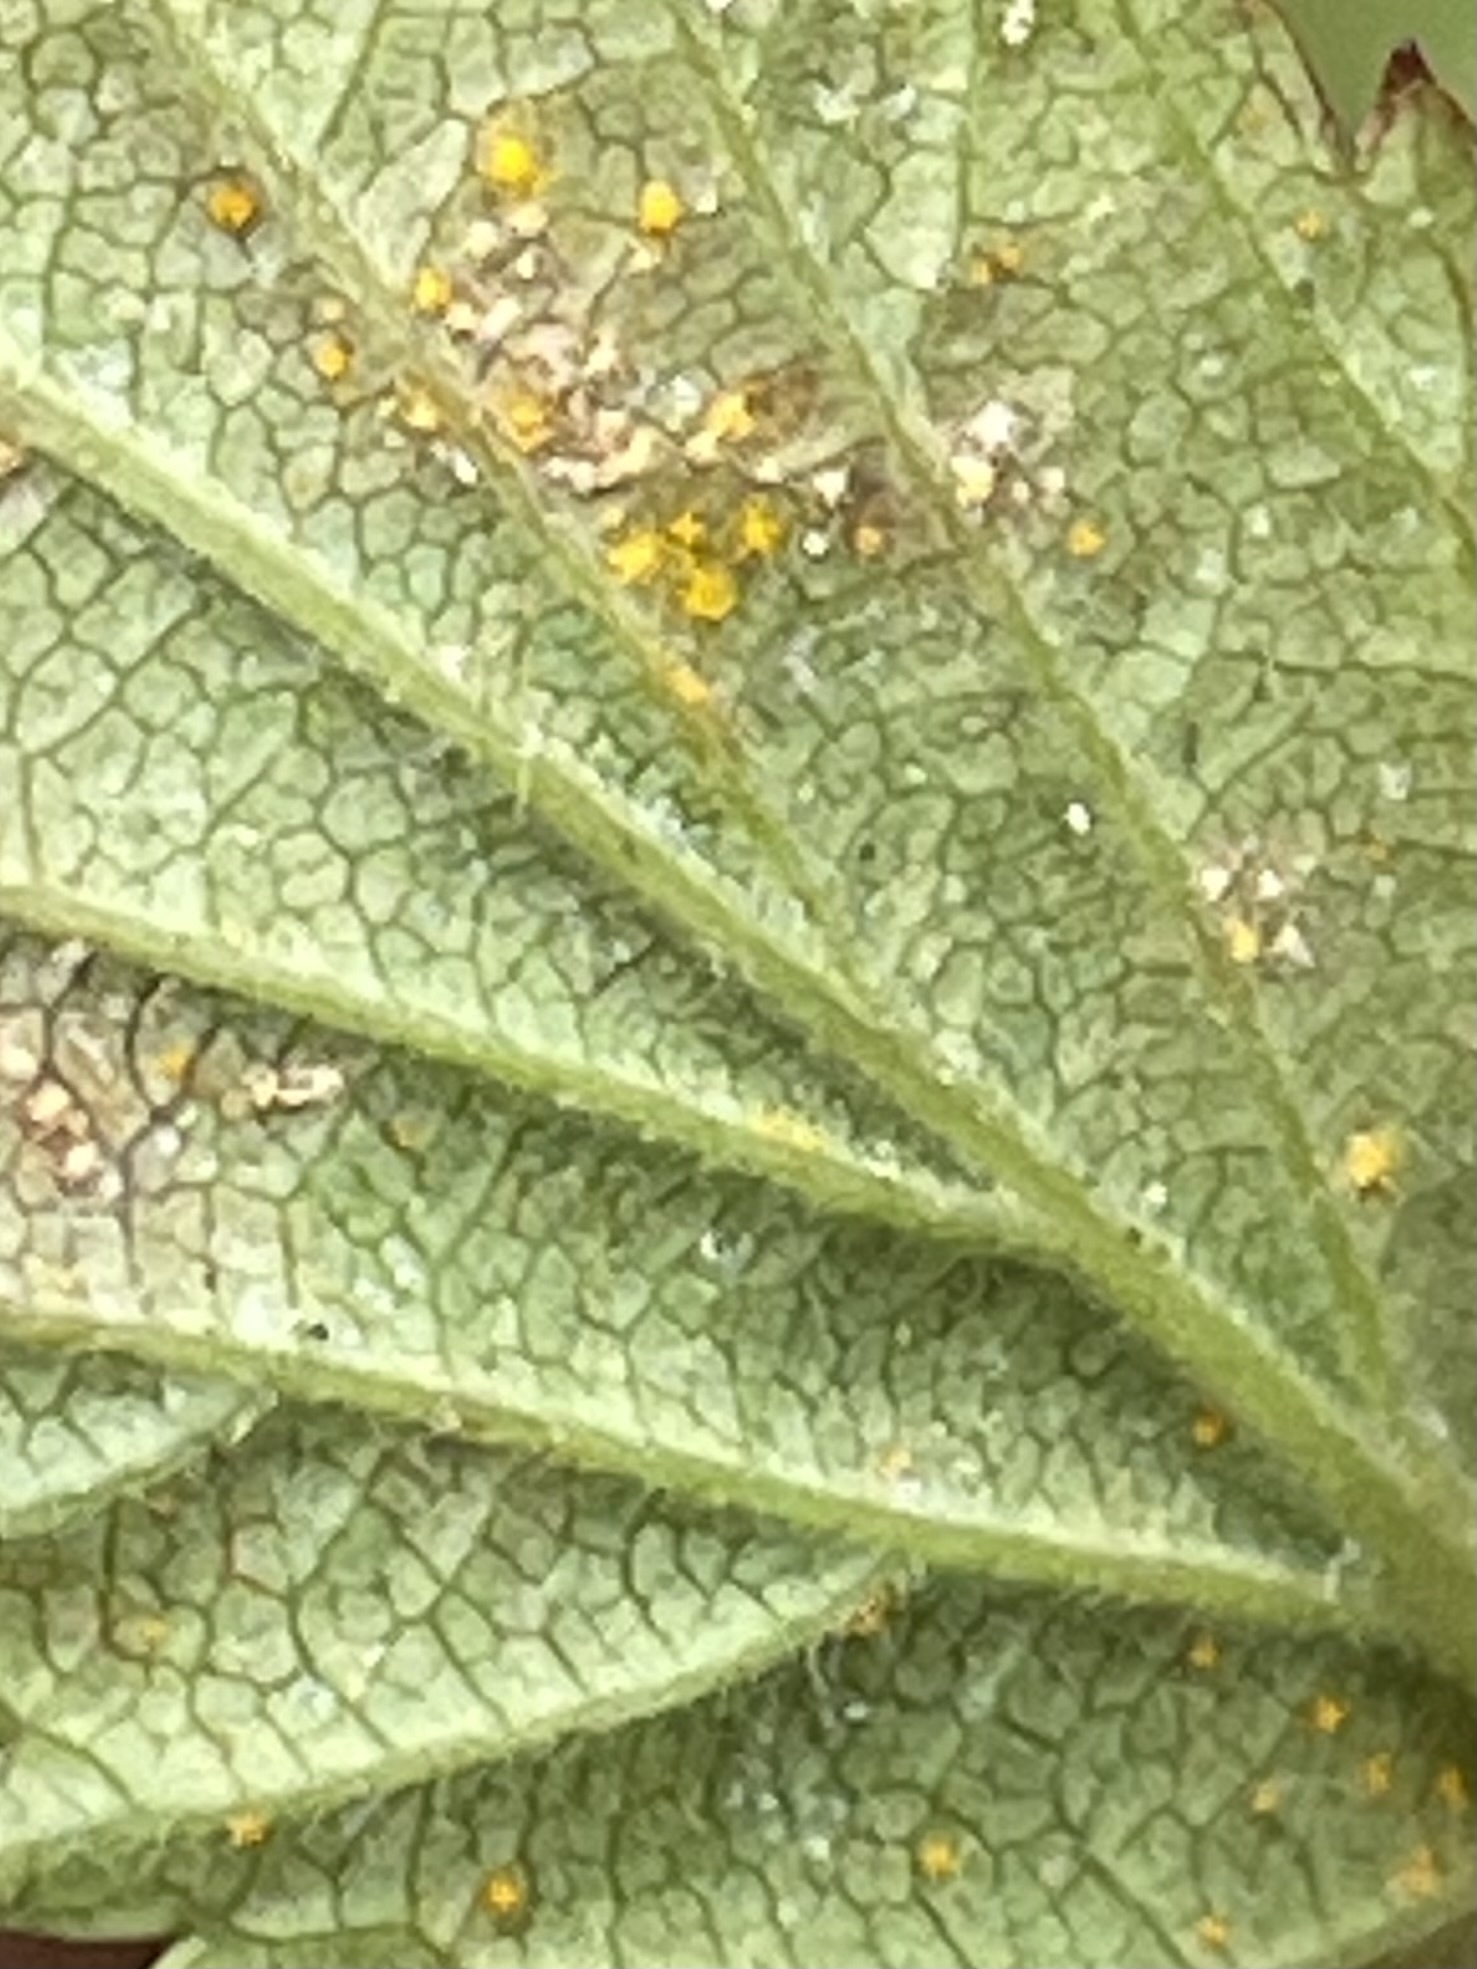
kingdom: Plantae
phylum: Tracheophyta
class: Magnoliopsida
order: Rosales
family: Rosaceae
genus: Rubus
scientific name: Rubus pensilvanicus
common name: Pennsylvania blackberry
